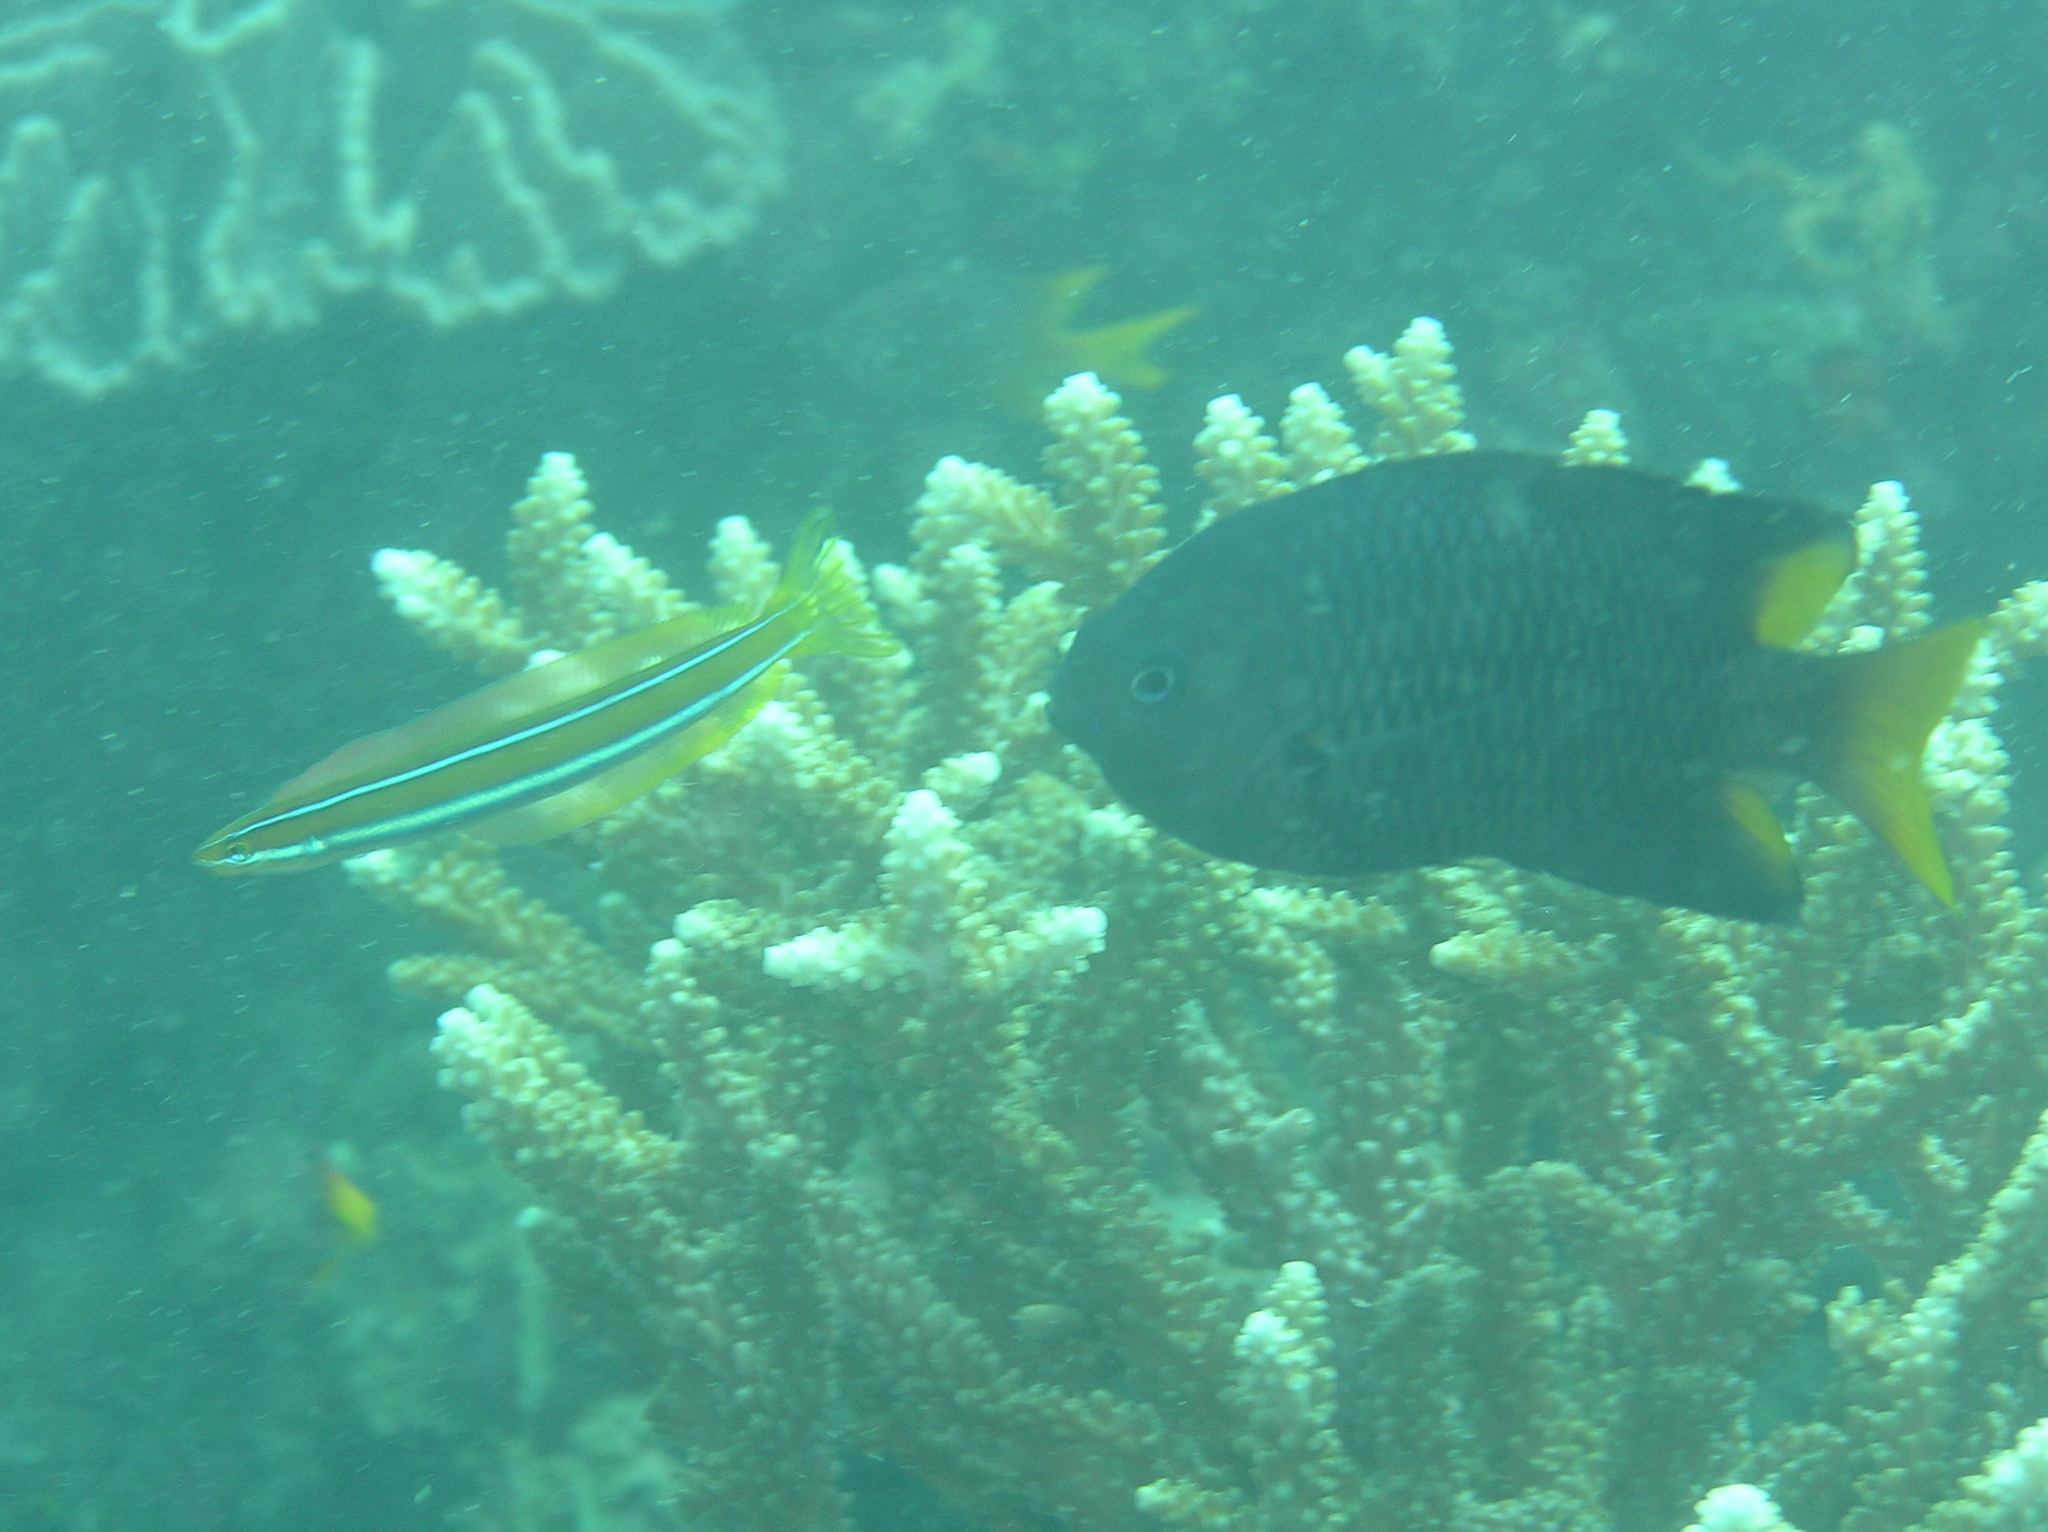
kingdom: Animalia
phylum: Chordata
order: Perciformes
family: Pomacentridae
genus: Pomacentrus
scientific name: Pomacentrus philippinus
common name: Philippine damsel
